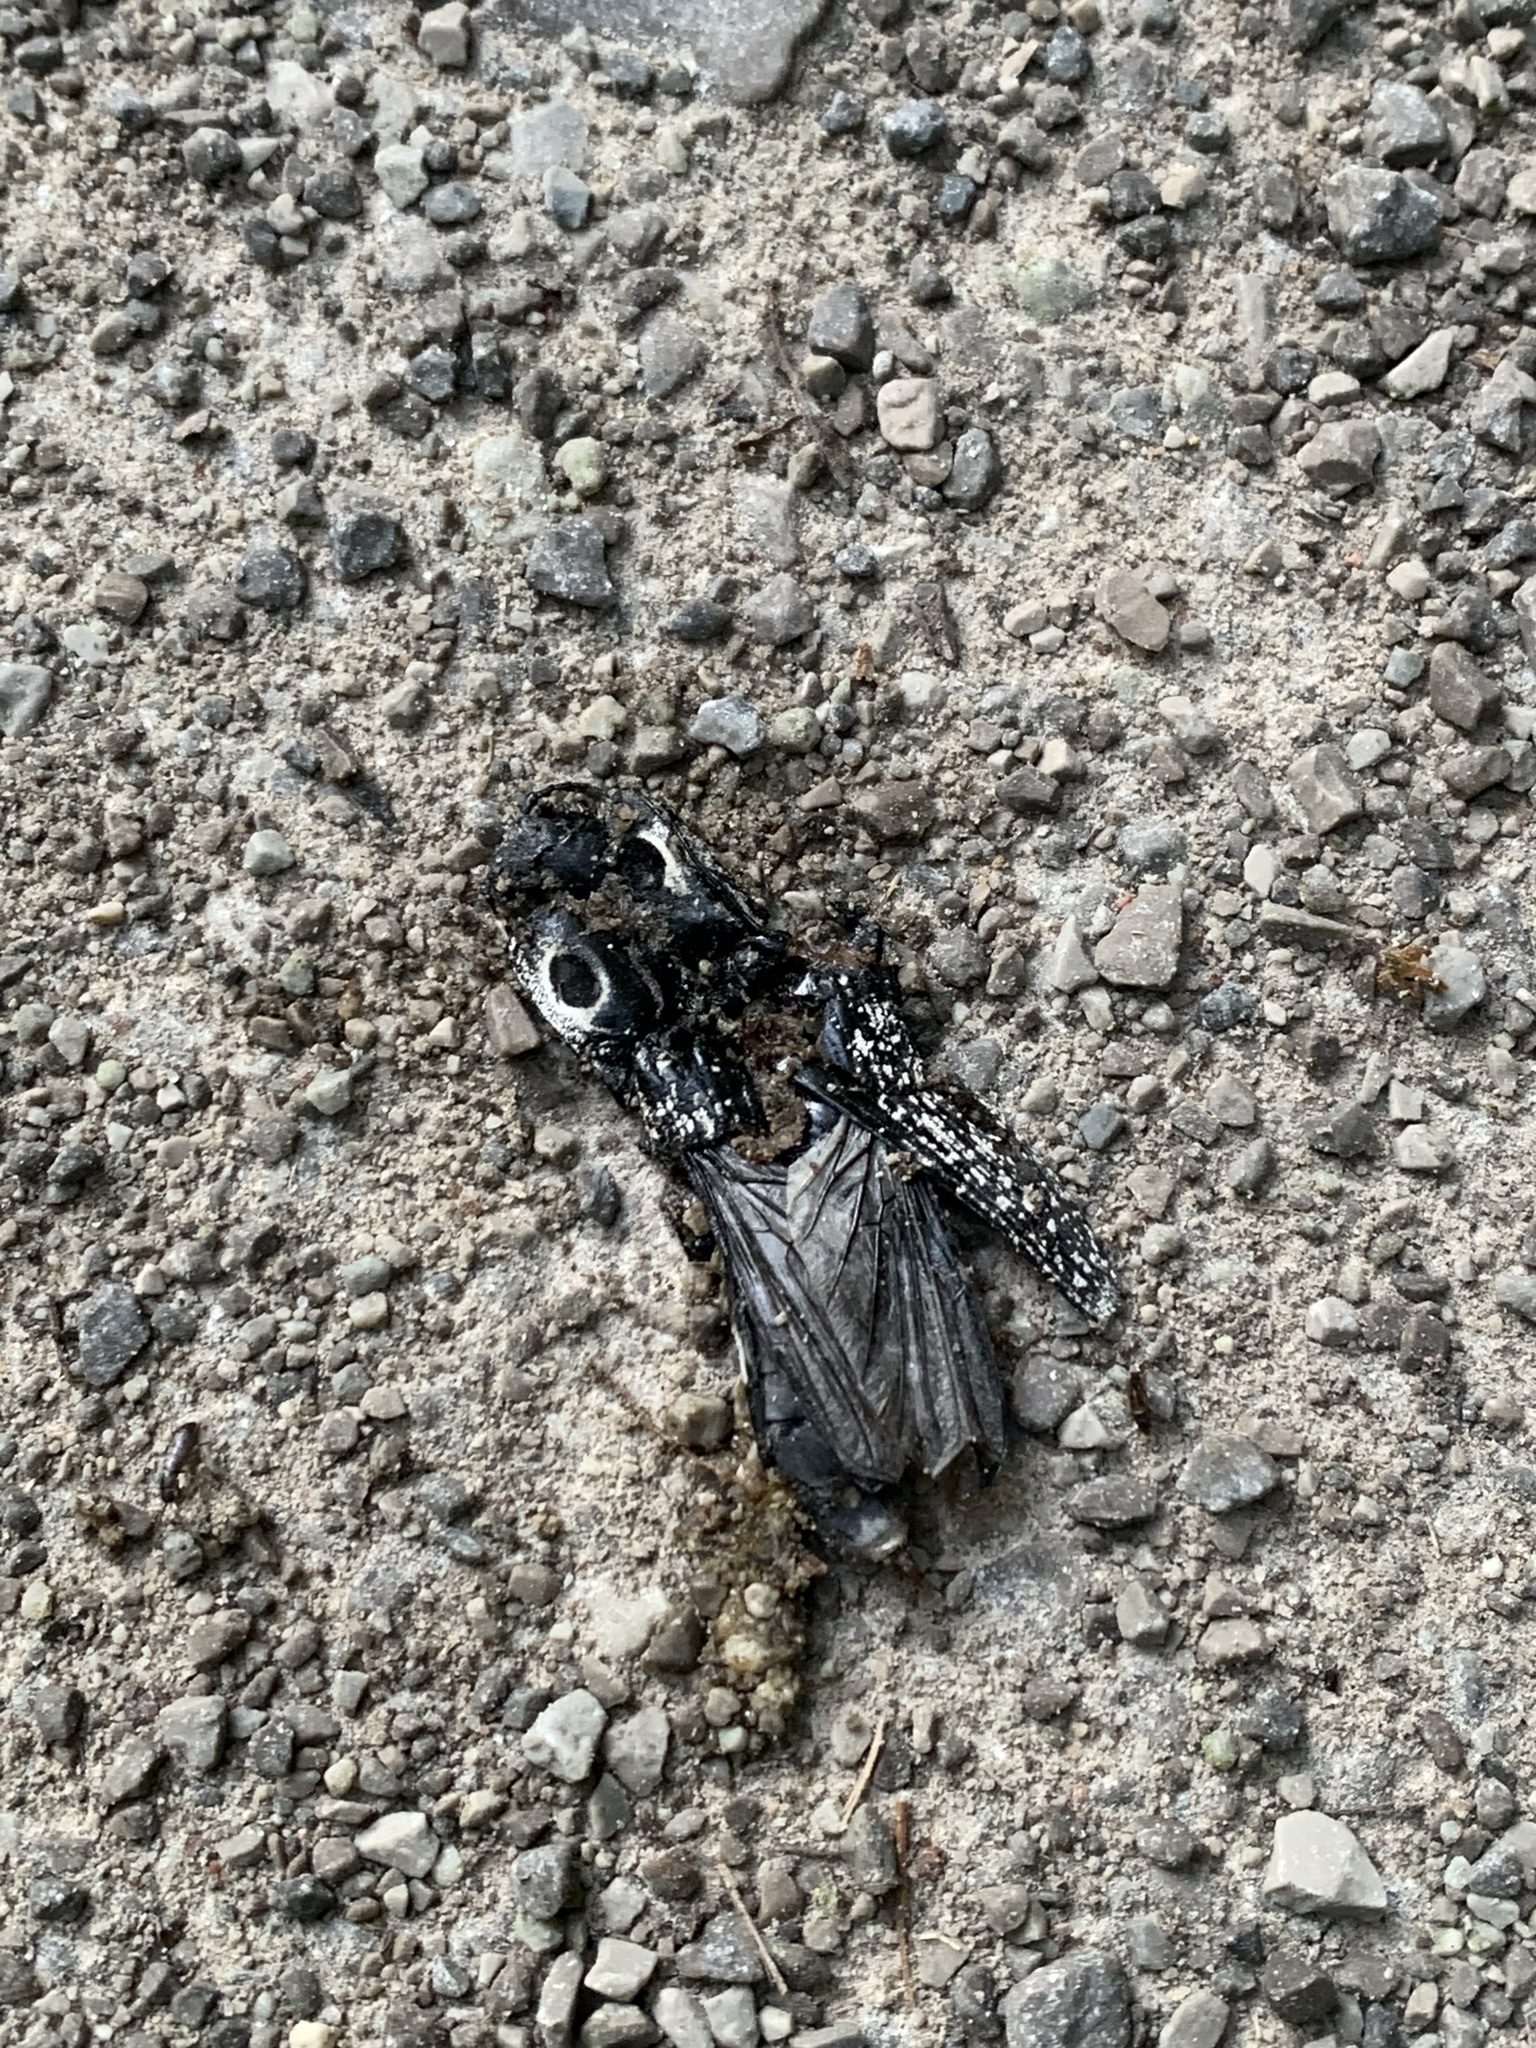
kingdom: Animalia
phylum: Arthropoda
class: Insecta
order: Coleoptera
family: Elateridae
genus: Alaus
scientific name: Alaus oculatus
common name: Eastern eyed click beetle
